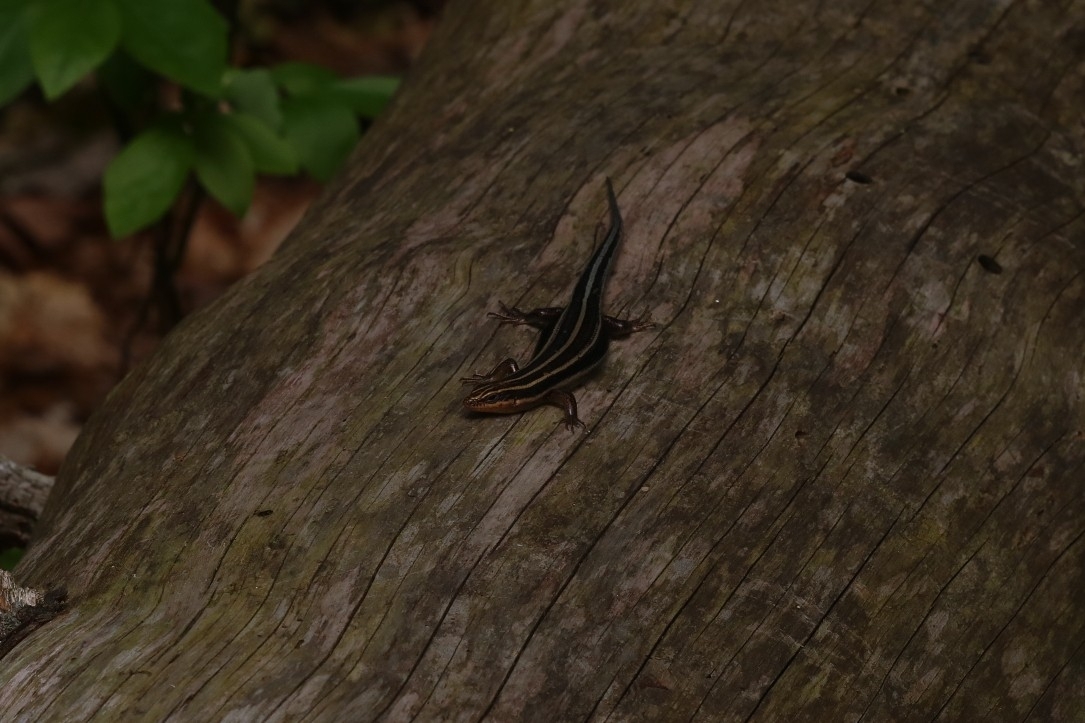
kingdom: Animalia
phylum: Chordata
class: Squamata
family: Scincidae
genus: Plestiodon
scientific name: Plestiodon fasciatus
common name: Five-lined skink
